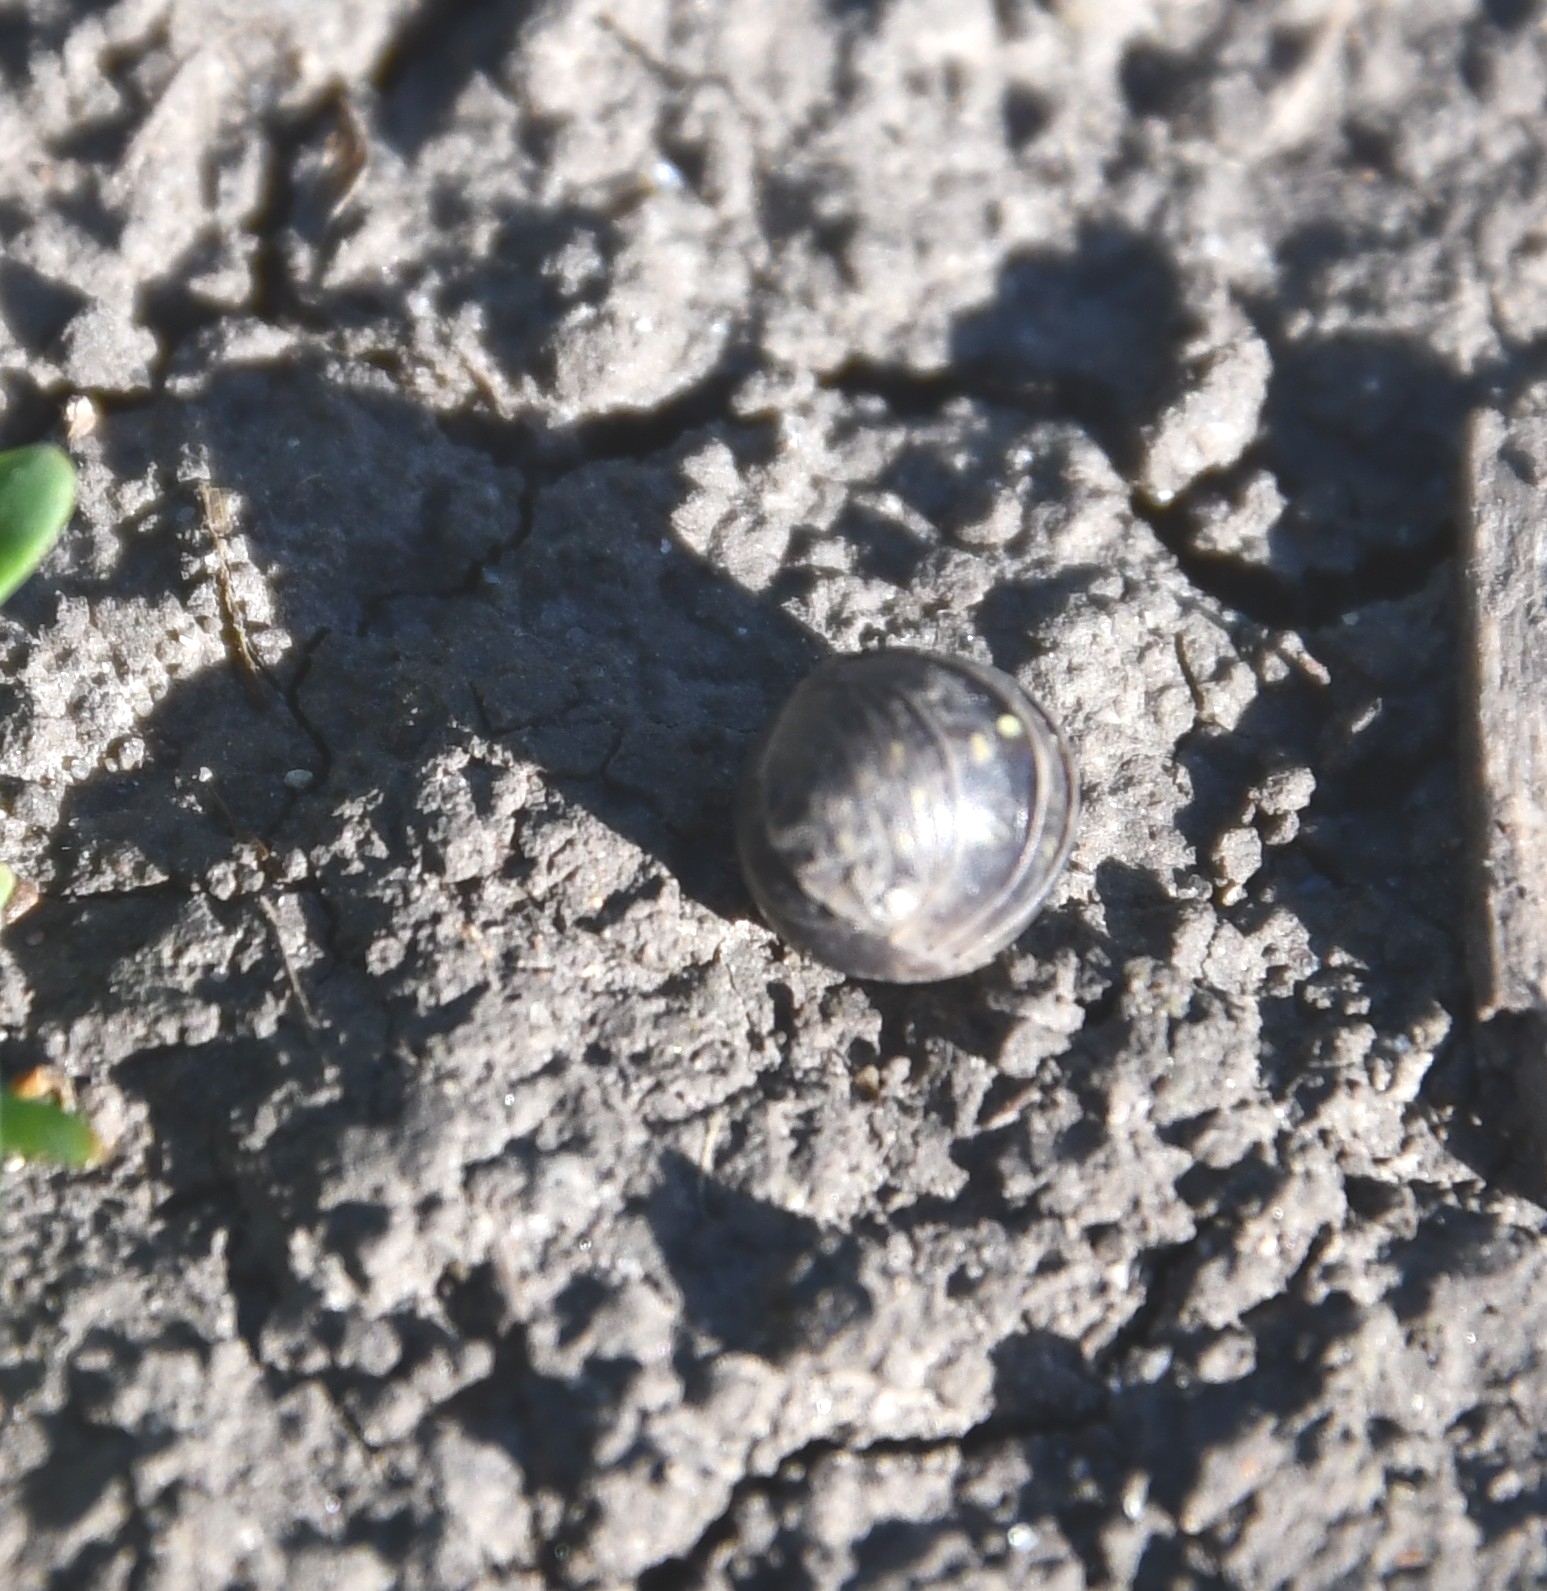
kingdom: Animalia
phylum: Arthropoda
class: Malacostraca
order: Isopoda
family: Armadillidiidae
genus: Armadillidium
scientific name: Armadillidium vulgare
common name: Common pill woodlouse
